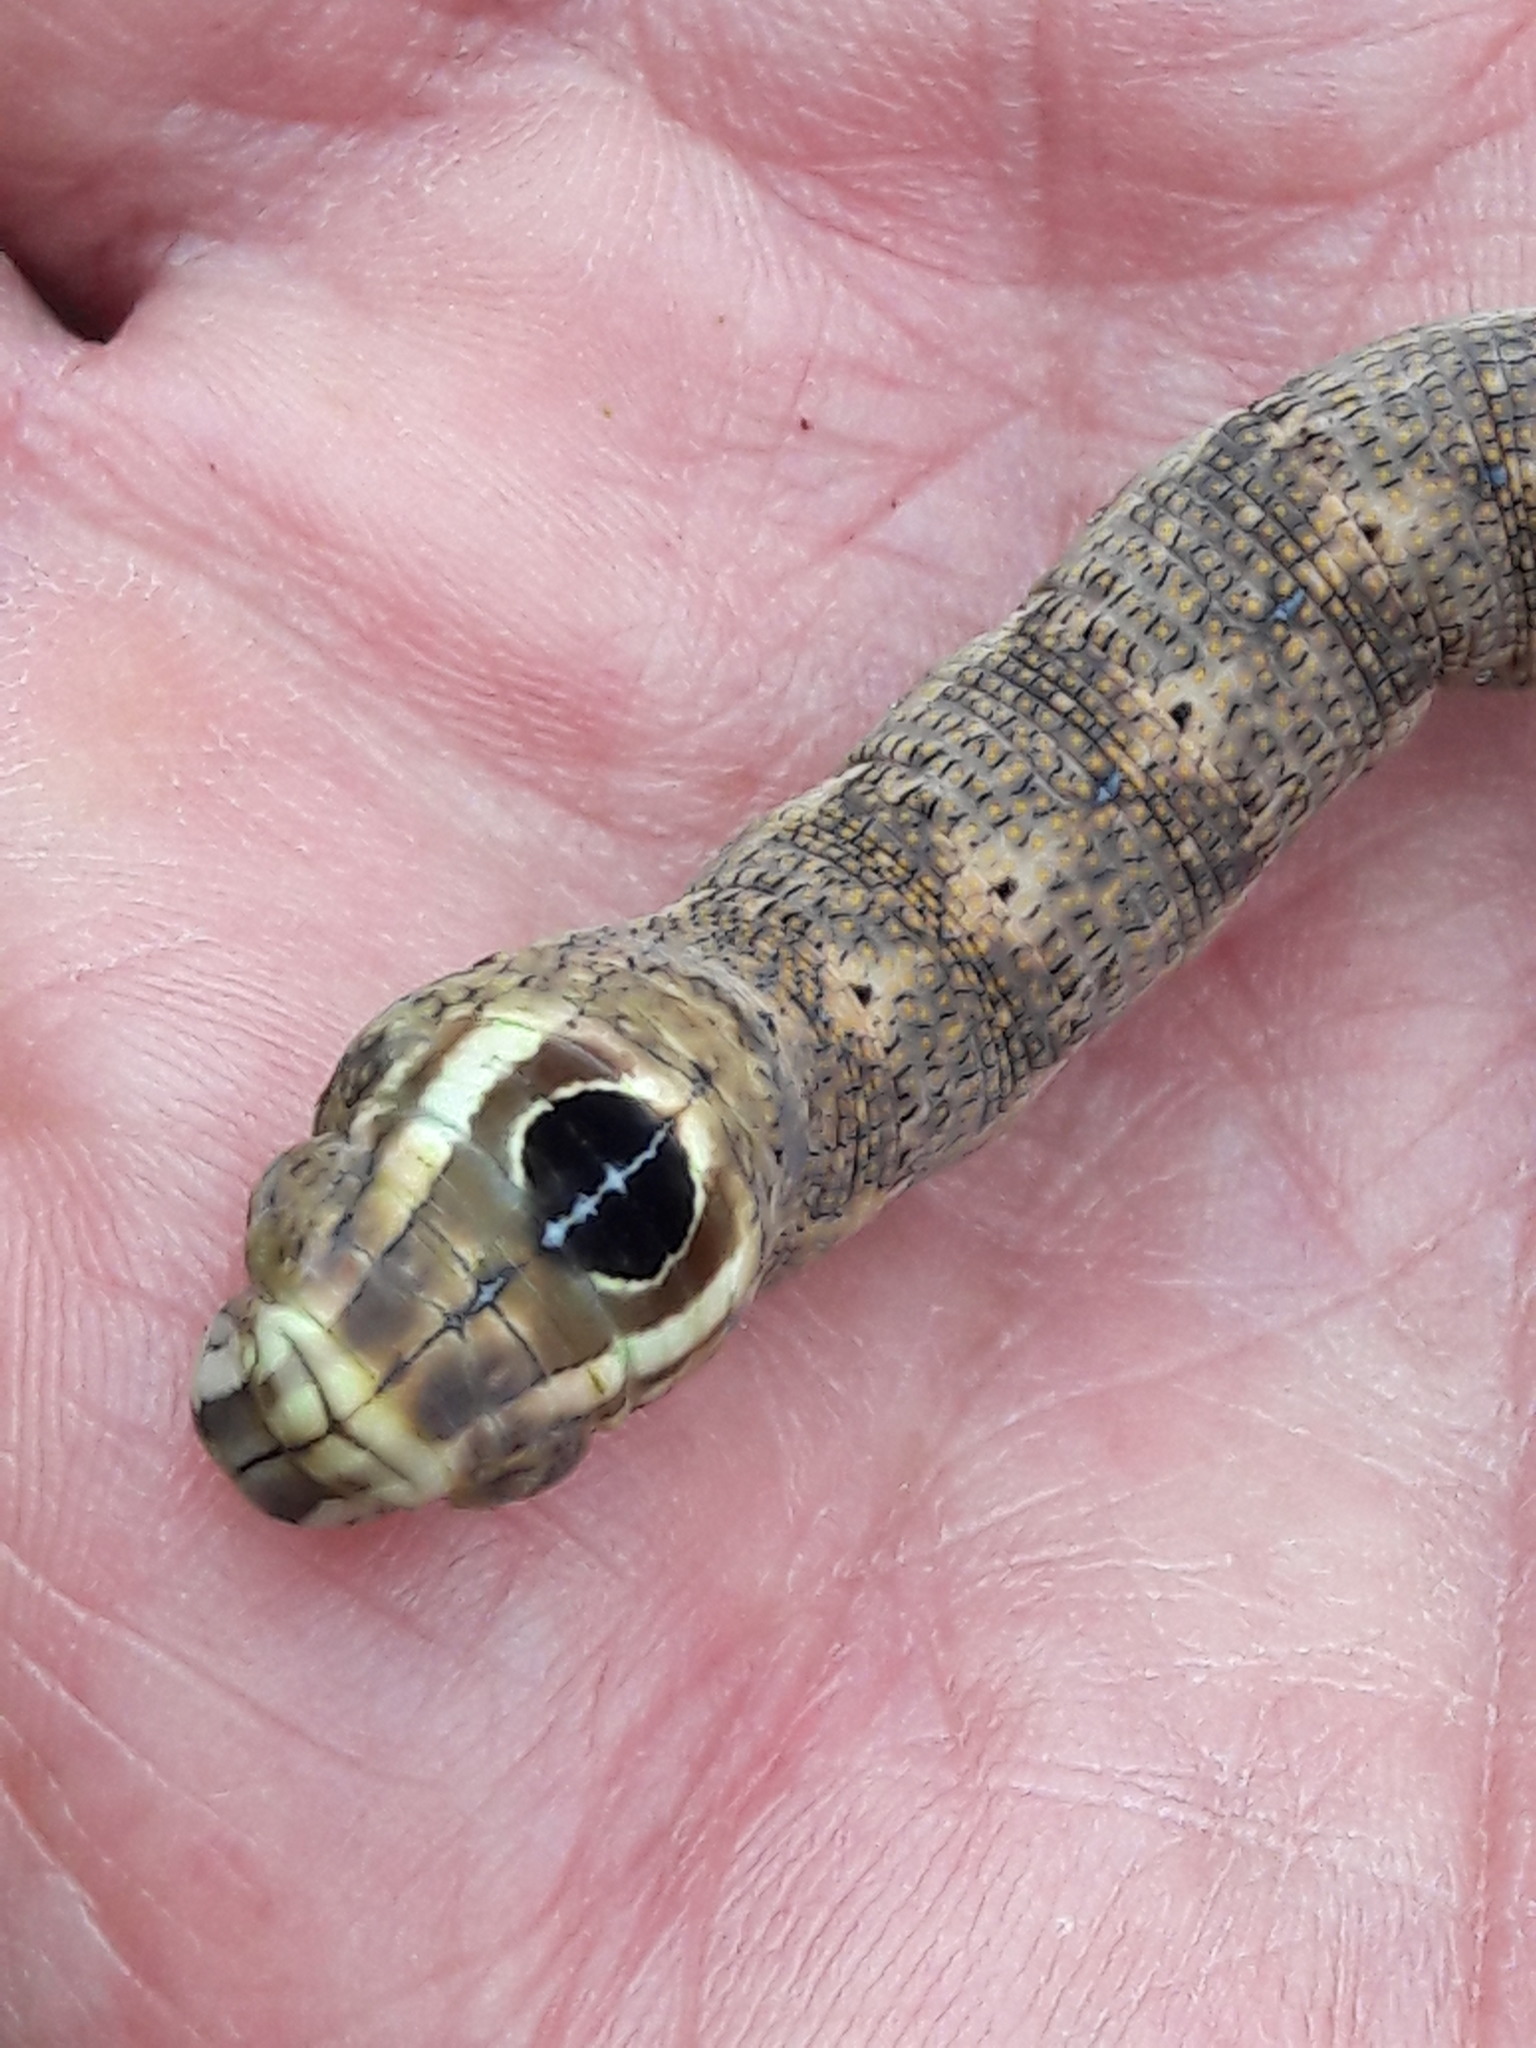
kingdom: Animalia
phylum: Arthropoda
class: Insecta
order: Lepidoptera
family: Sphingidae
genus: Erinnyis
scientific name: Erinnyis ello
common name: Ello sphinx
